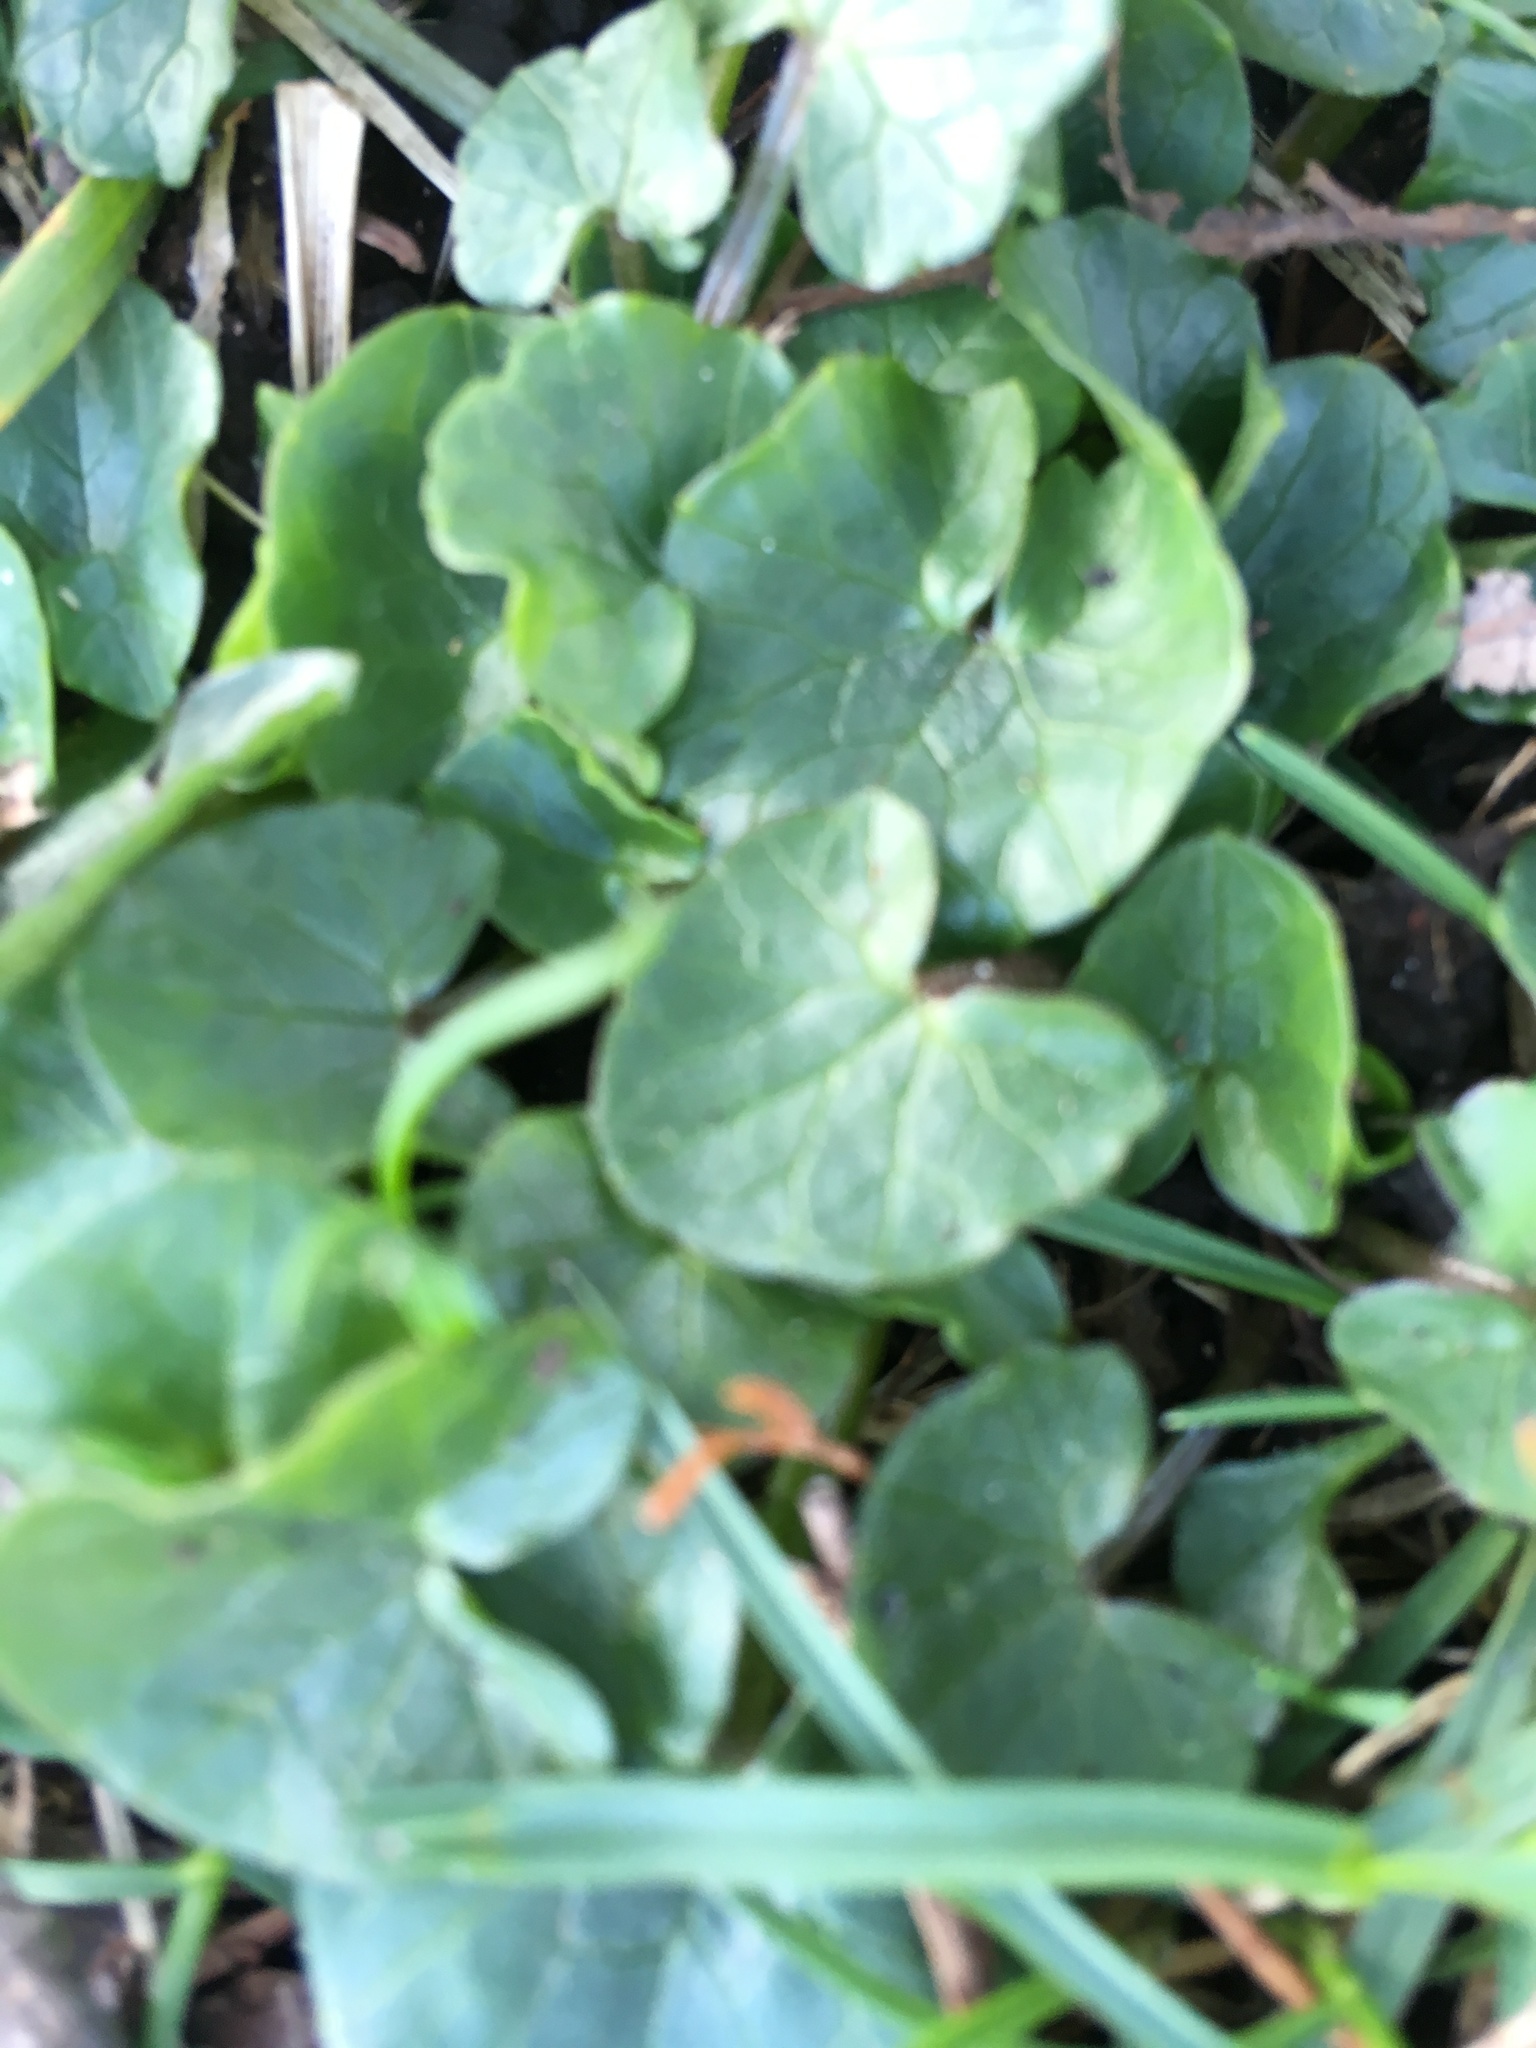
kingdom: Plantae
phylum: Tracheophyta
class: Magnoliopsida
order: Ranunculales
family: Ranunculaceae
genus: Ficaria
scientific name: Ficaria verna
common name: Lesser celandine
